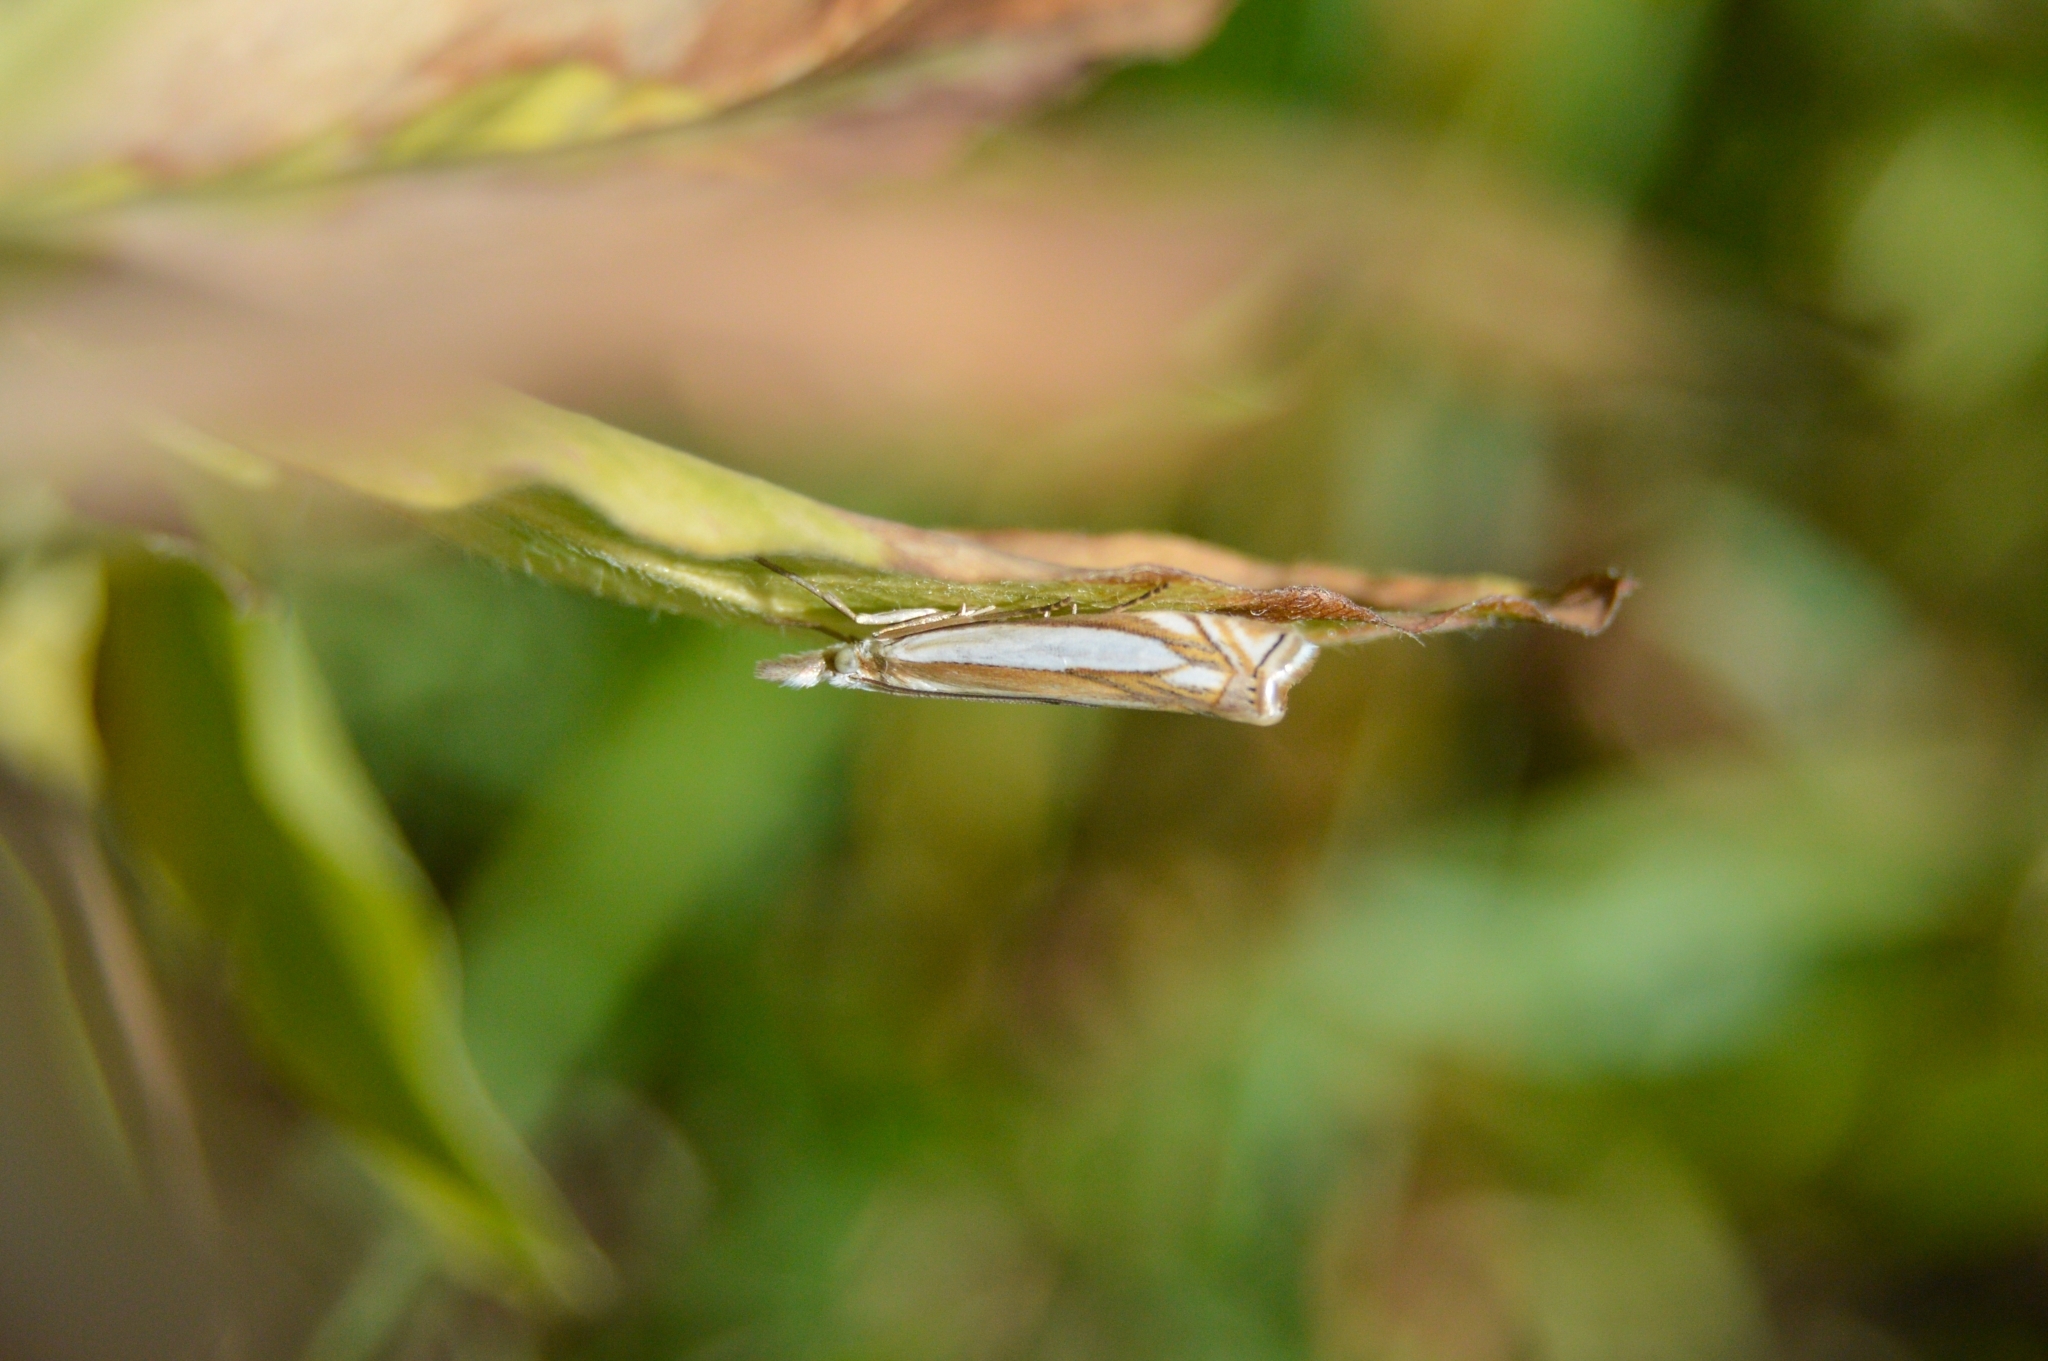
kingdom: Animalia
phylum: Arthropoda
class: Insecta
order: Lepidoptera
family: Crambidae
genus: Crambus
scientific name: Crambus pascuella
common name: Inlaid grass-veneer
